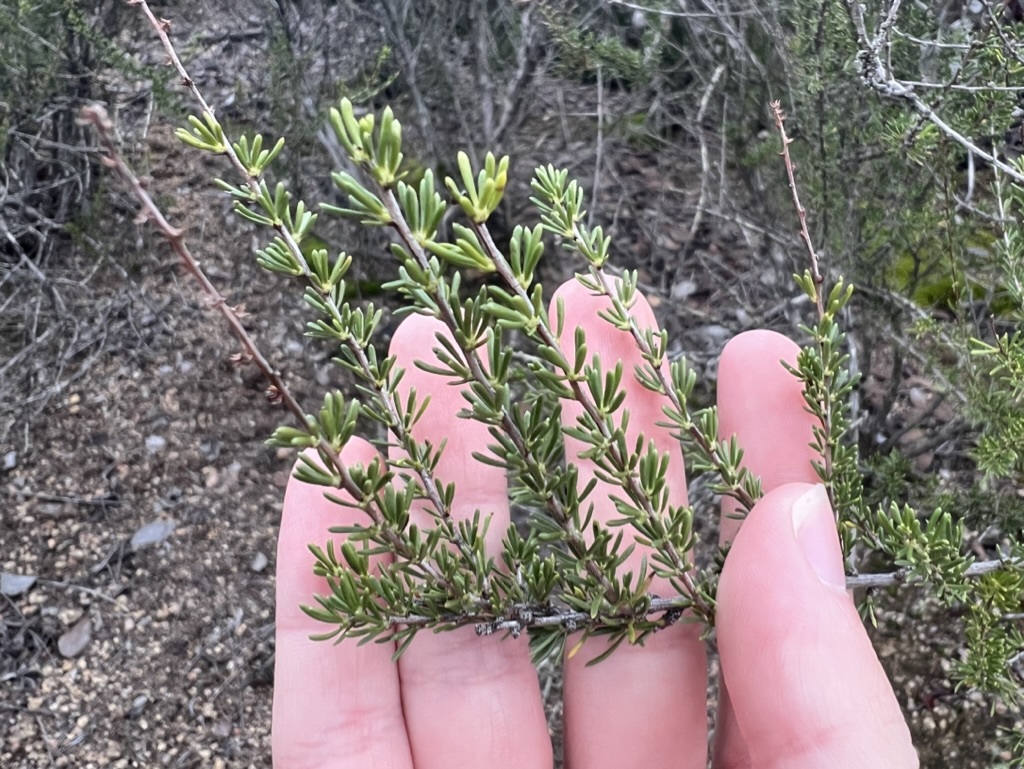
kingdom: Plantae
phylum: Tracheophyta
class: Magnoliopsida
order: Rosales
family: Rosaceae
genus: Adenostoma
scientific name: Adenostoma fasciculatum
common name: Chamise
